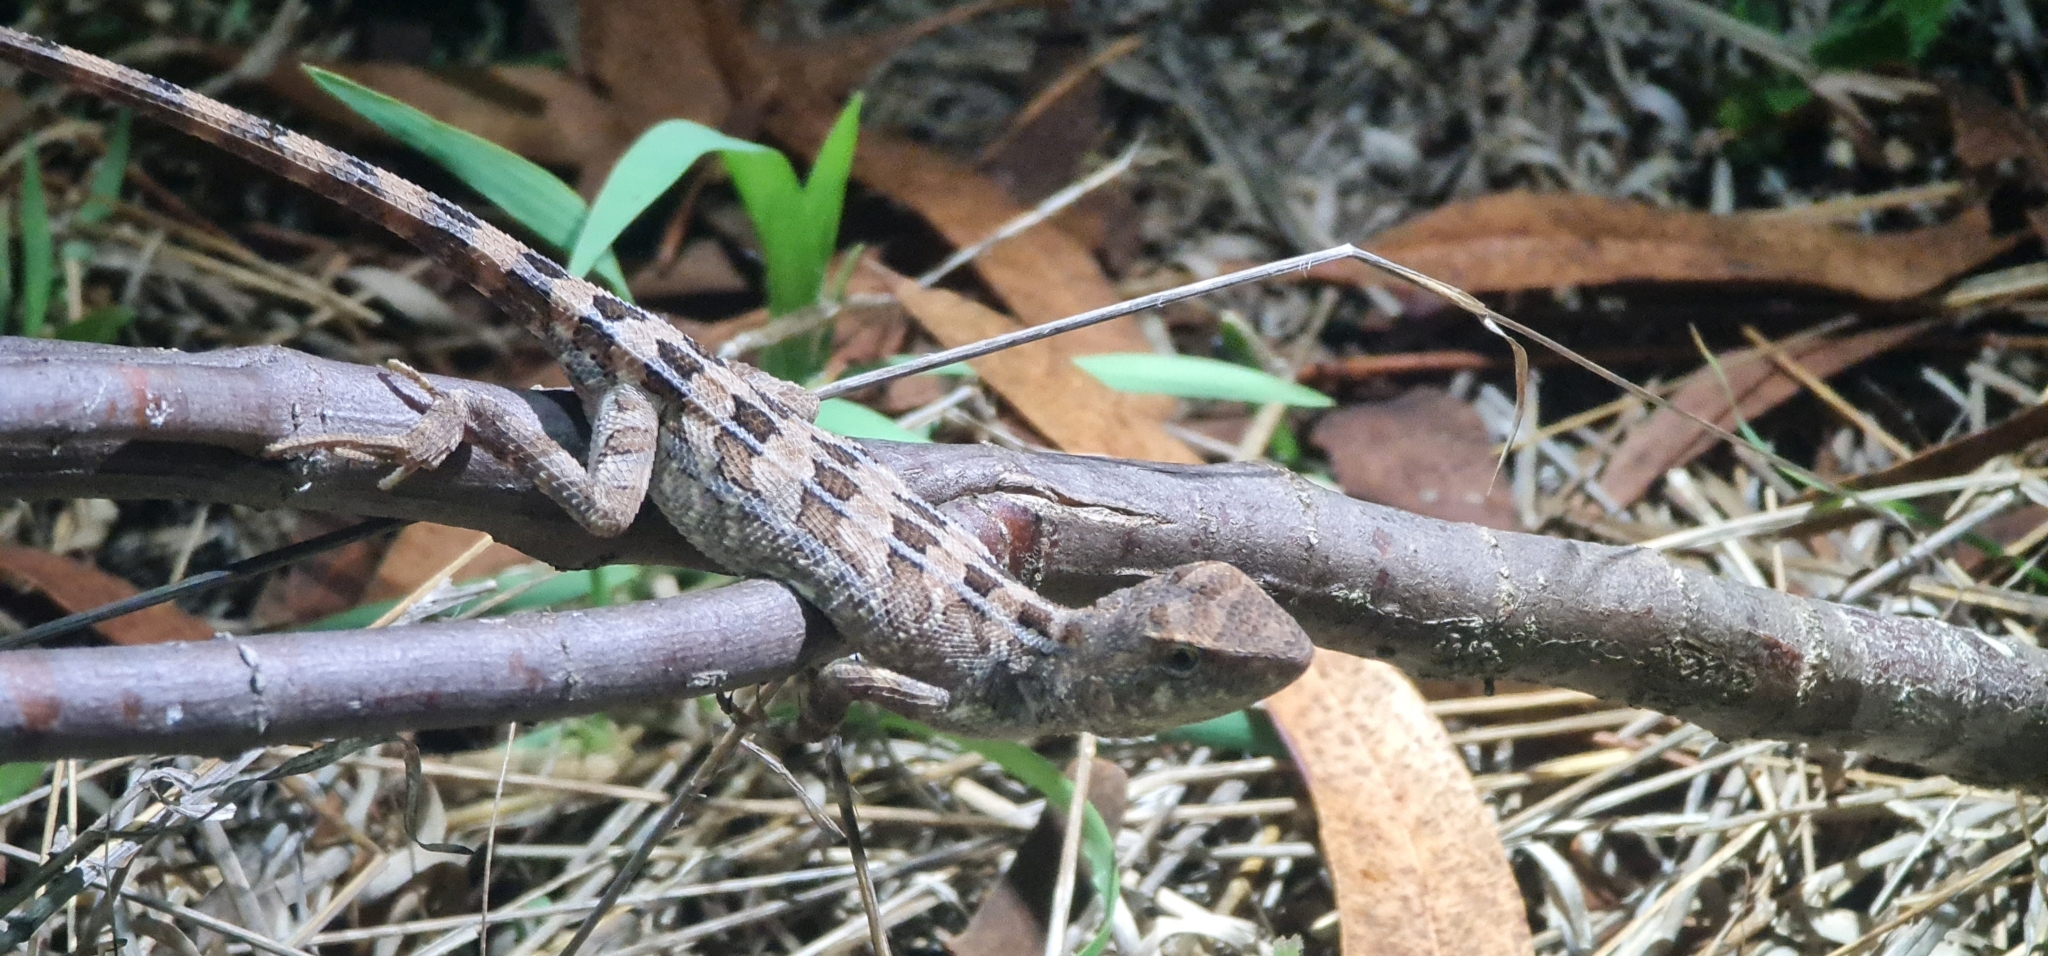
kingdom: Animalia
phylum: Chordata
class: Squamata
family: Agamidae
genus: Diporiphora
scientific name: Diporiphora australis
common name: Eastern two-line dragon
